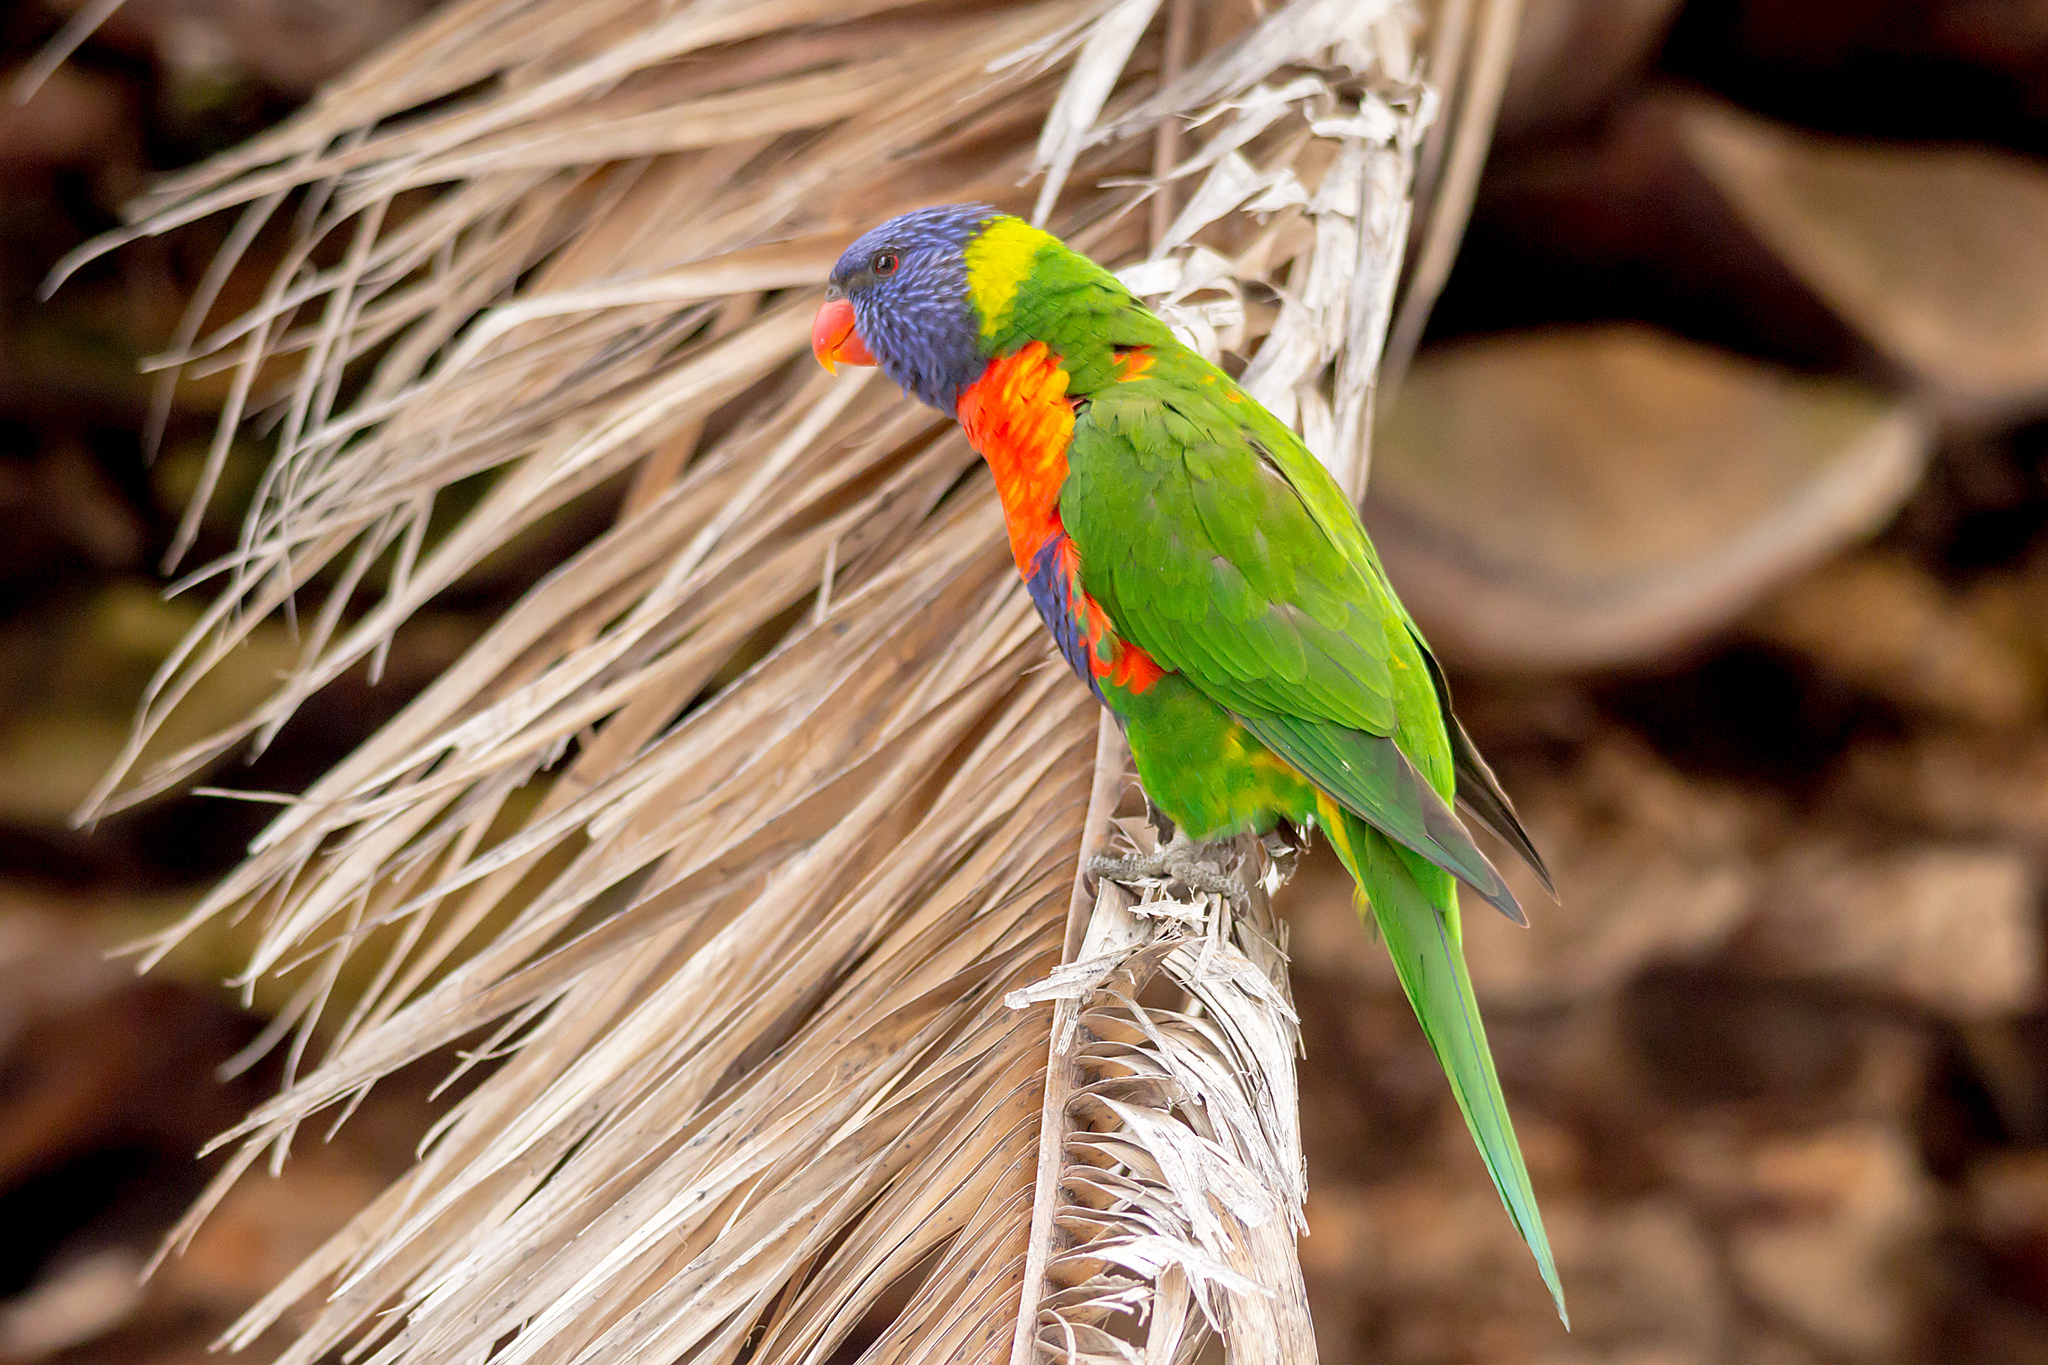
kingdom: Animalia
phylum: Chordata
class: Aves
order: Psittaciformes
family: Psittacidae
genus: Trichoglossus
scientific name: Trichoglossus haematodus
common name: Coconut lorikeet
